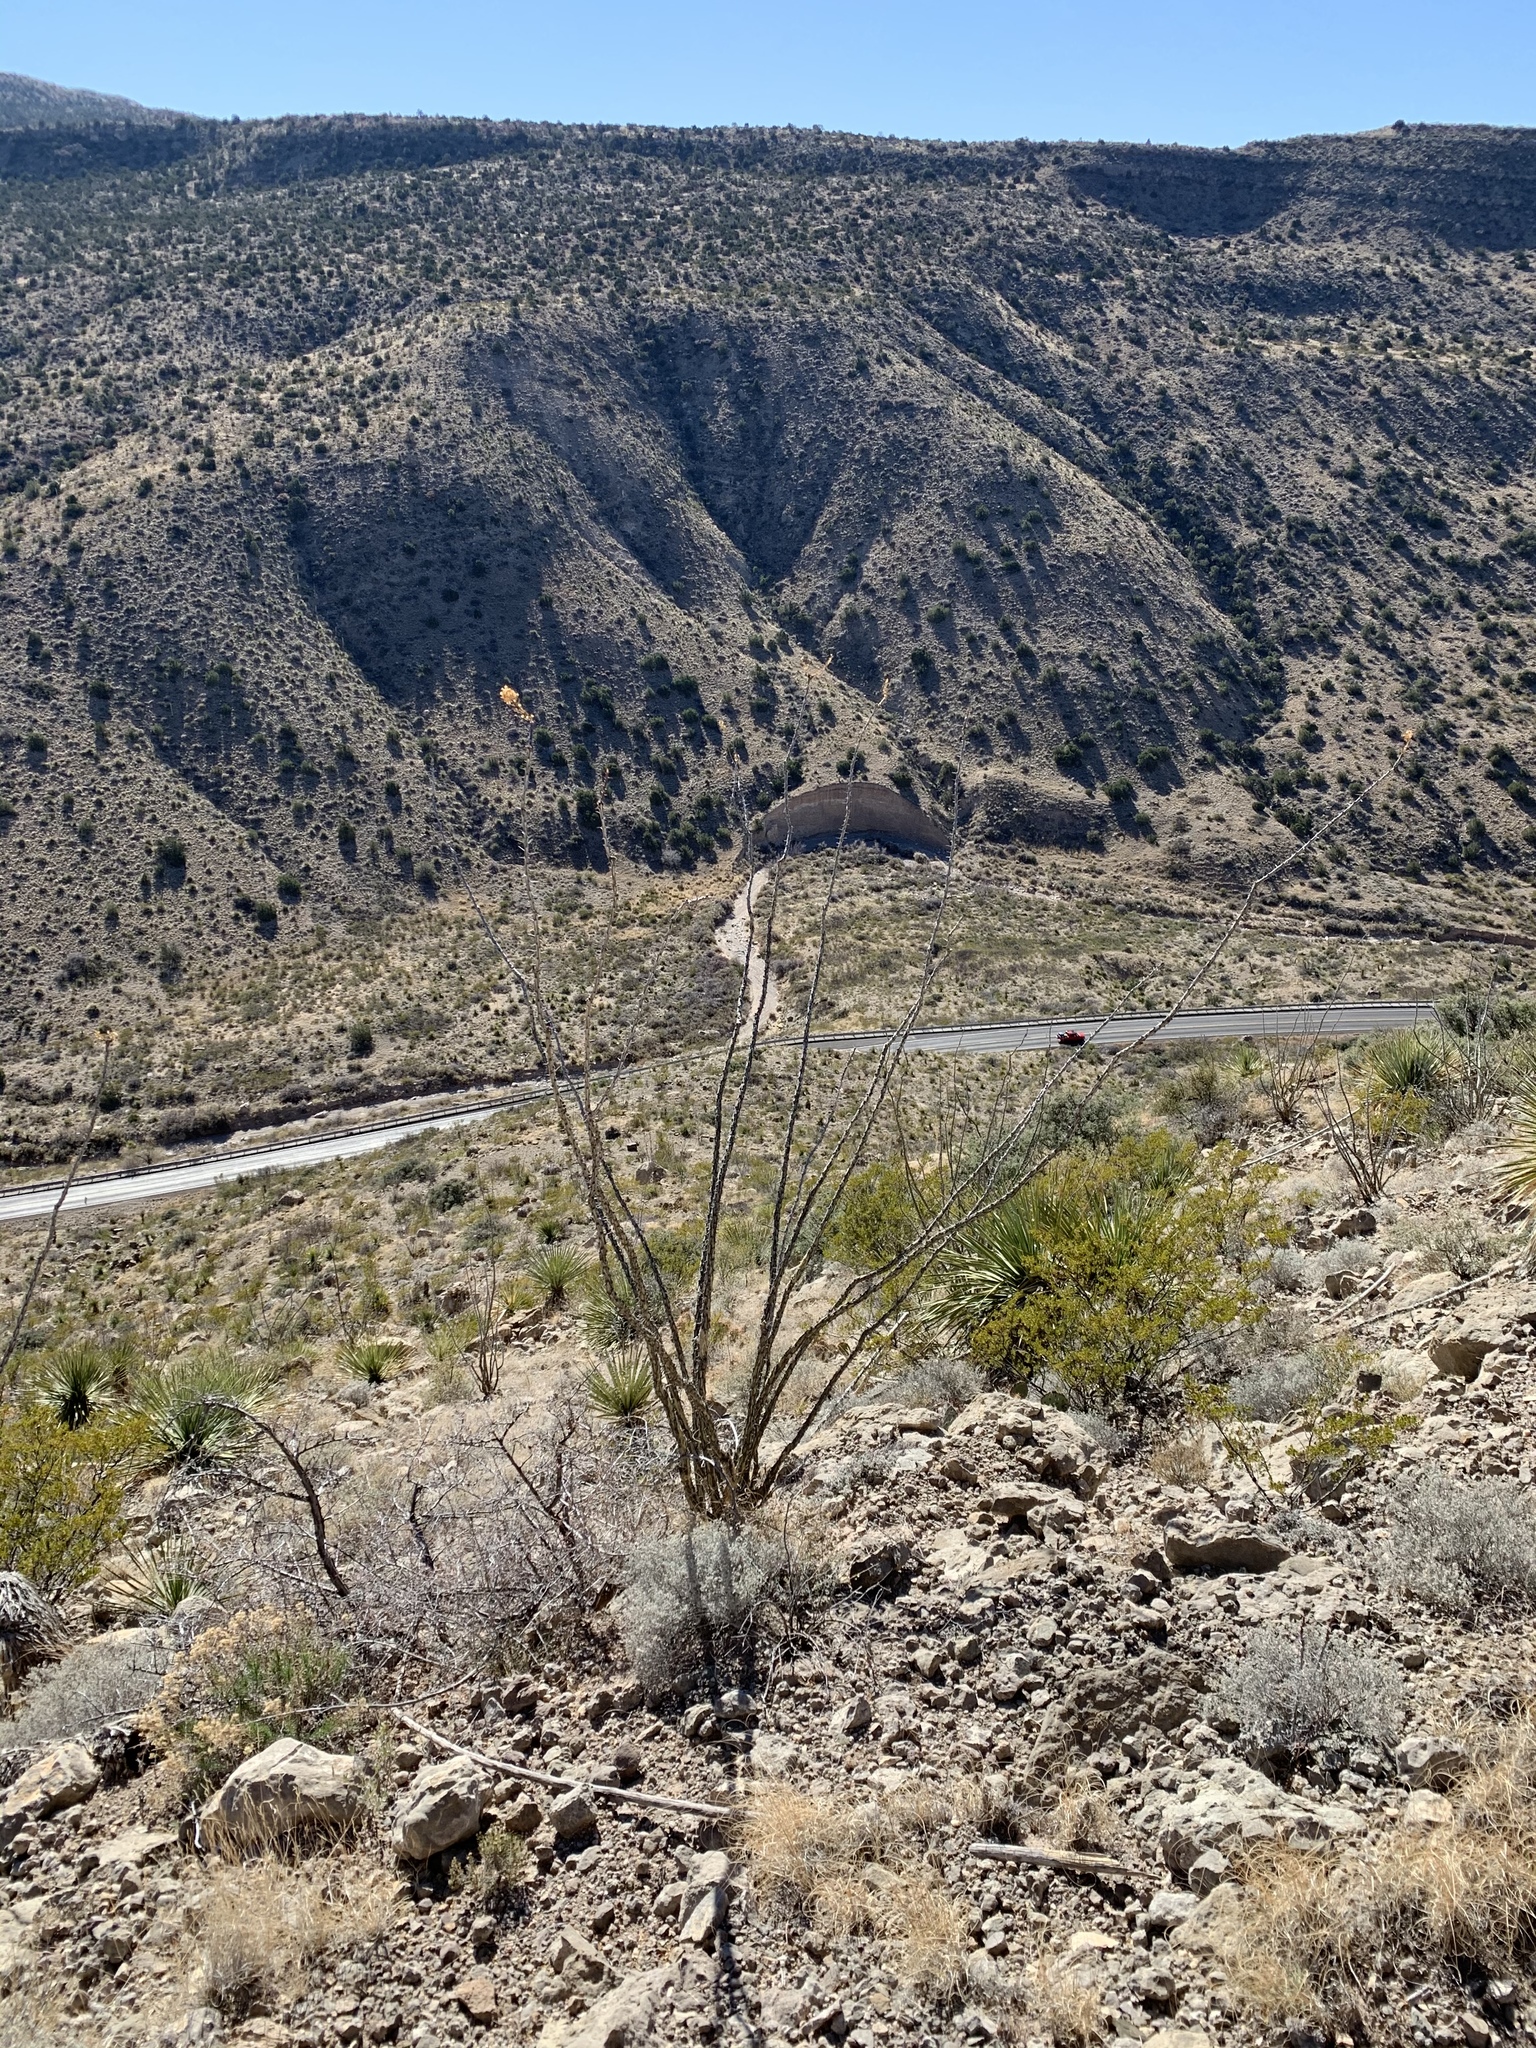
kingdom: Plantae
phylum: Tracheophyta
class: Magnoliopsida
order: Ericales
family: Fouquieriaceae
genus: Fouquieria
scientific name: Fouquieria splendens
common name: Vine-cactus
